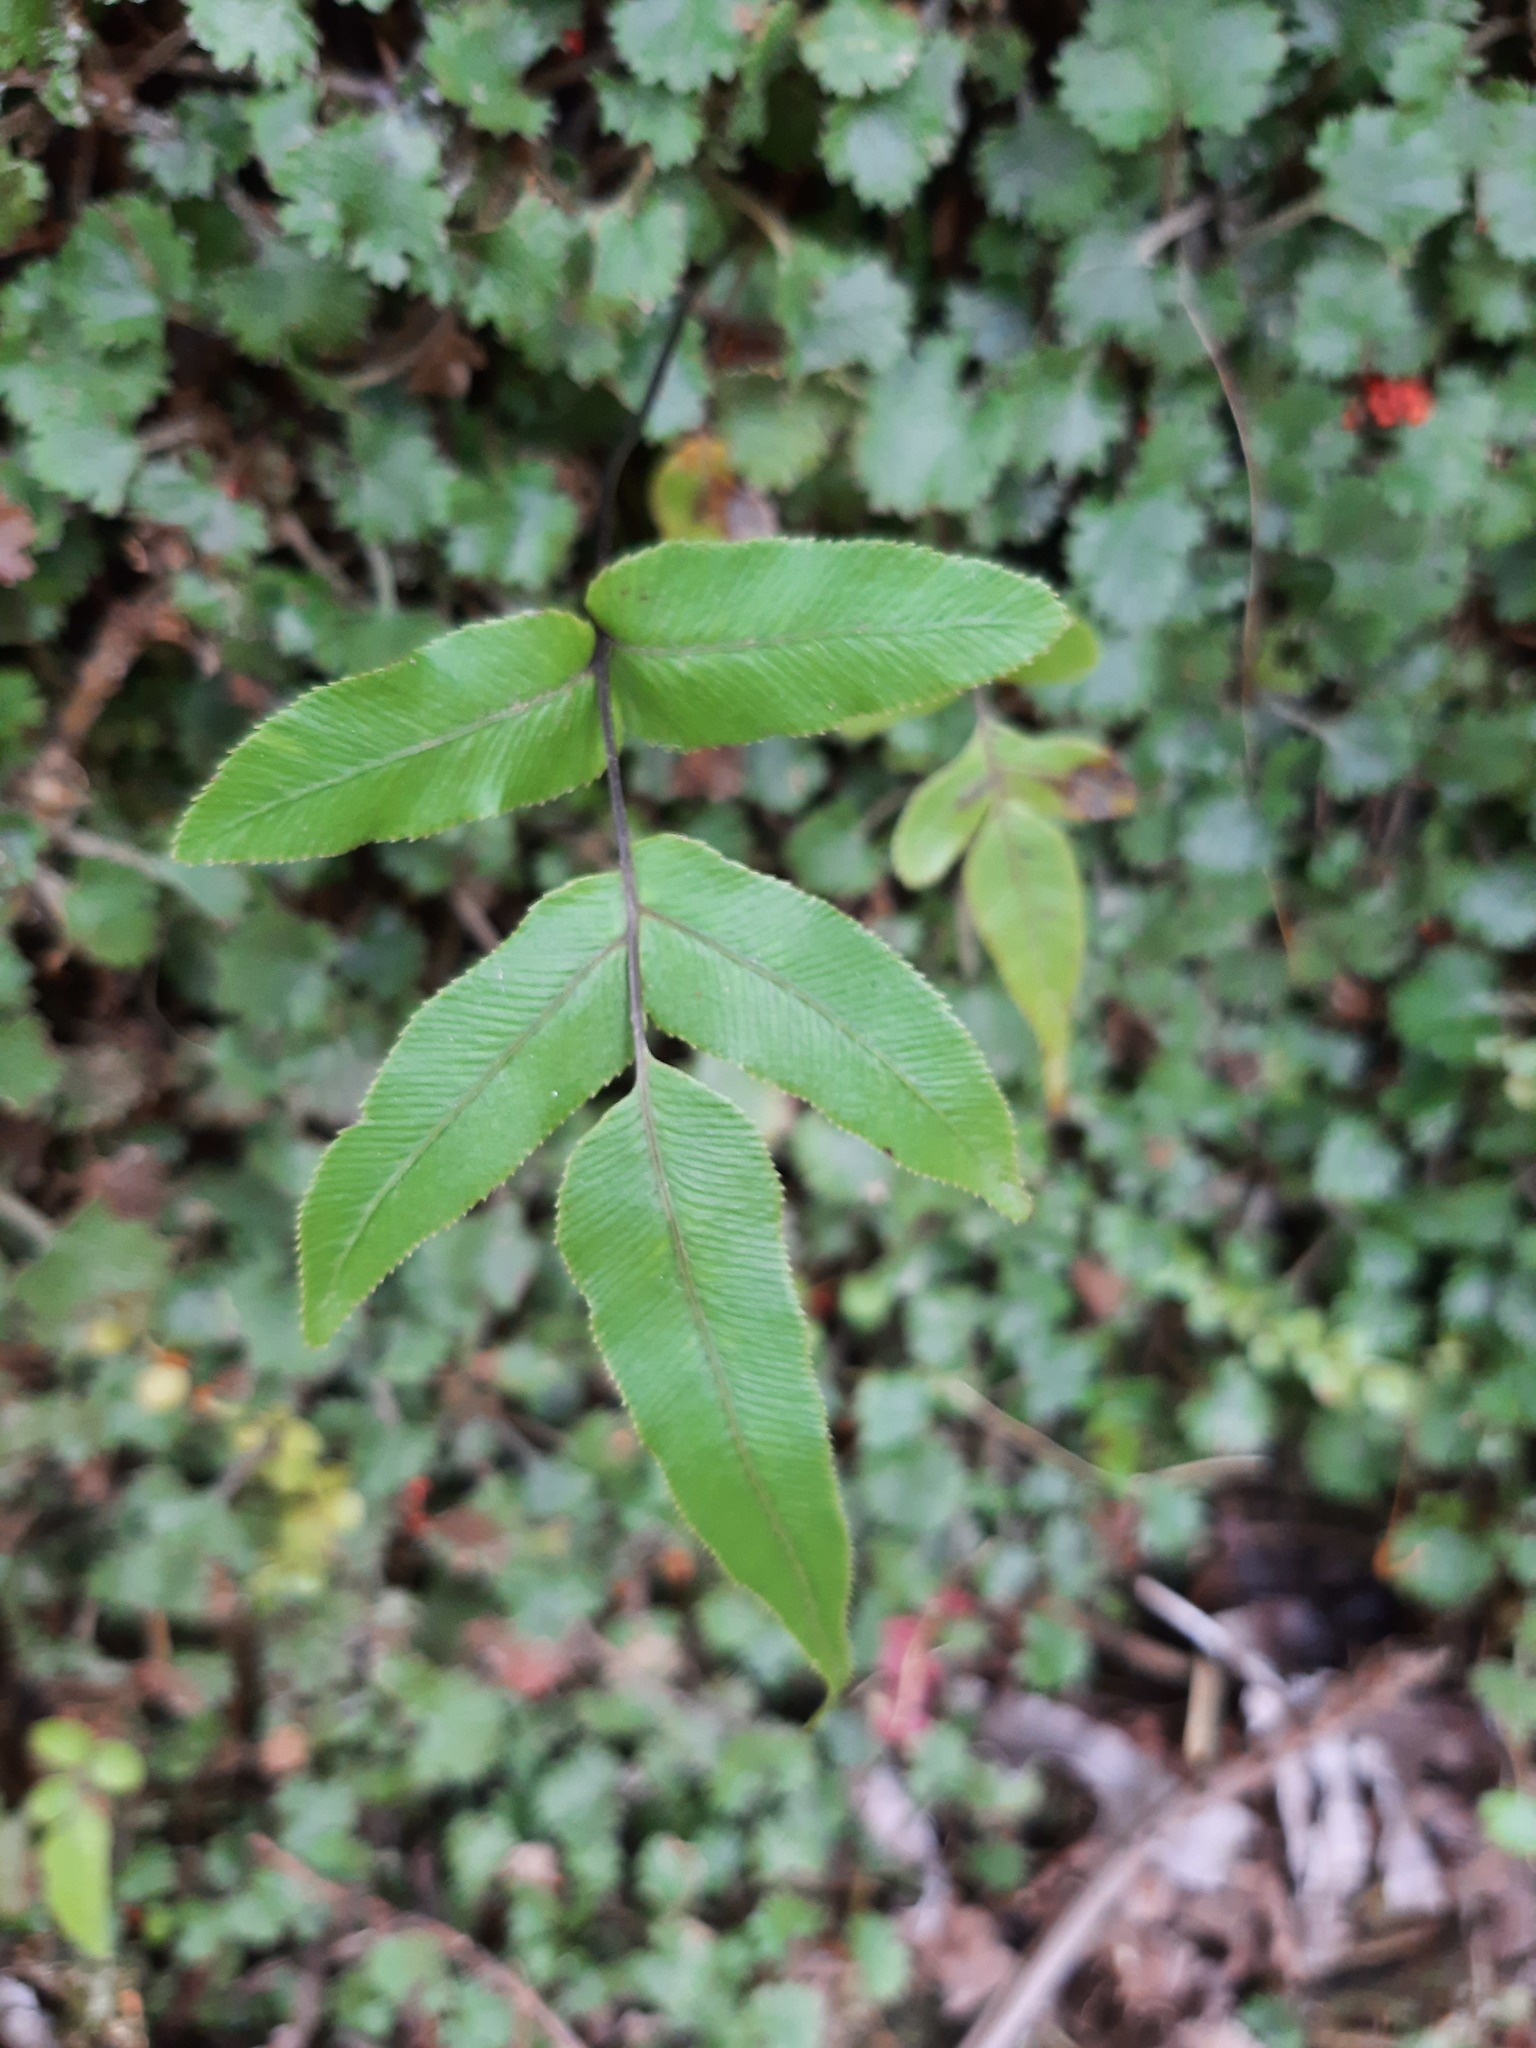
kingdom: Plantae
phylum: Tracheophyta
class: Polypodiopsida
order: Polypodiales
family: Blechnaceae
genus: Parablechnum
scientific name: Parablechnum procerum
